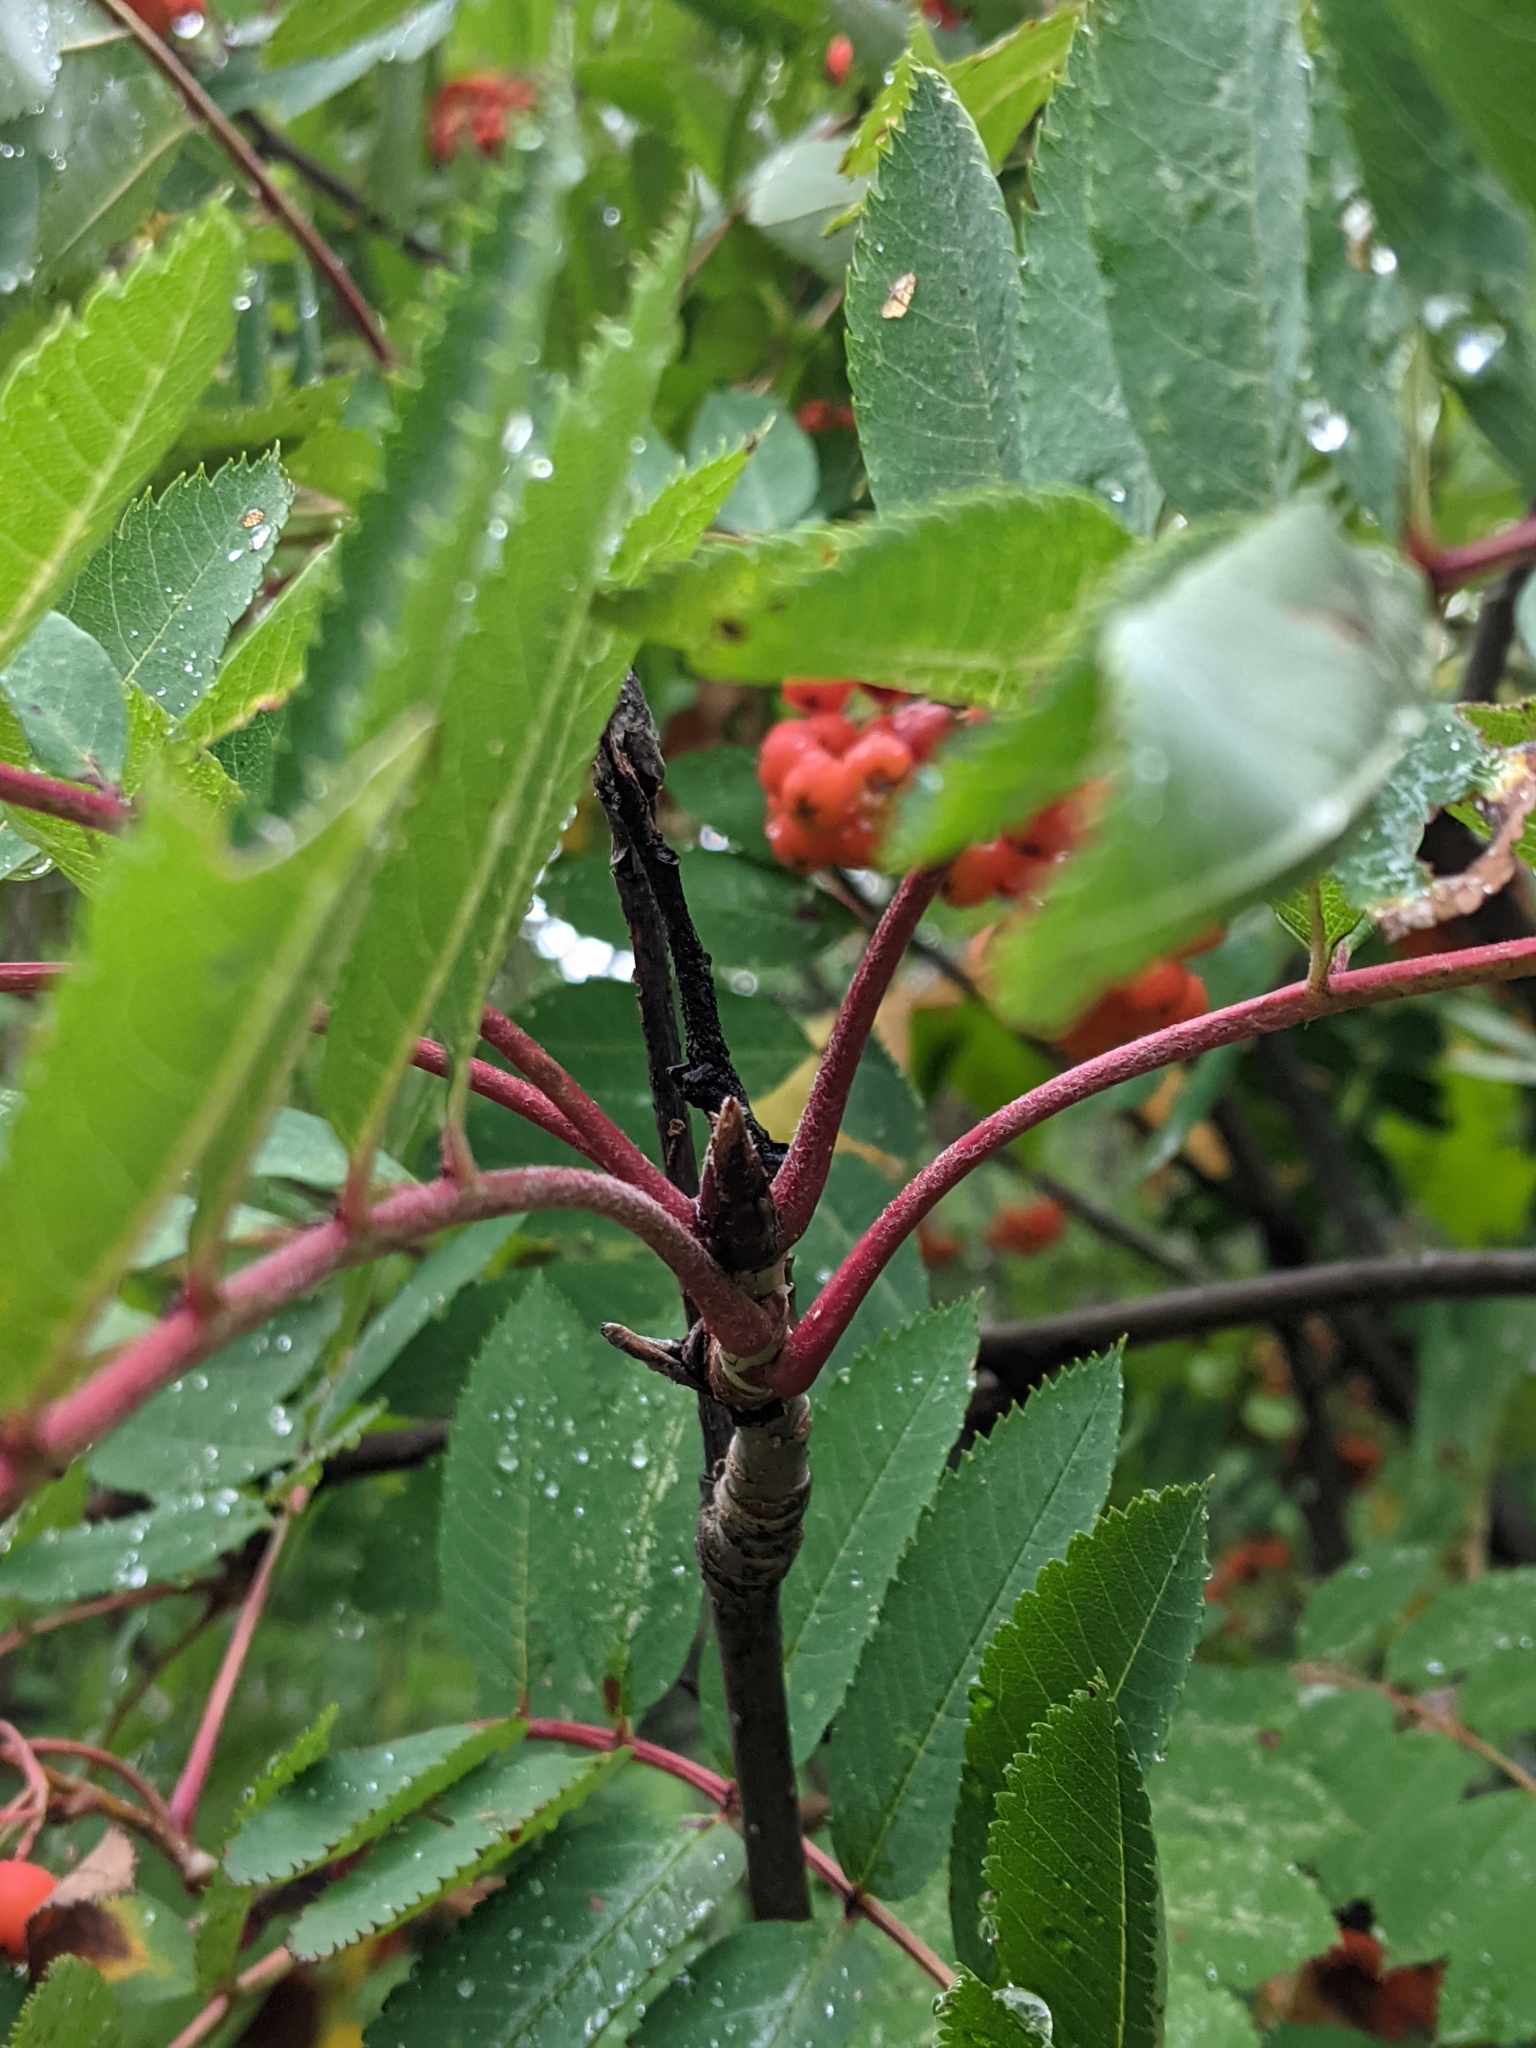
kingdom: Plantae
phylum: Tracheophyta
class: Magnoliopsida
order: Rosales
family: Rosaceae
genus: Sorbus
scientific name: Sorbus decora
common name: Northern mountain-ash
